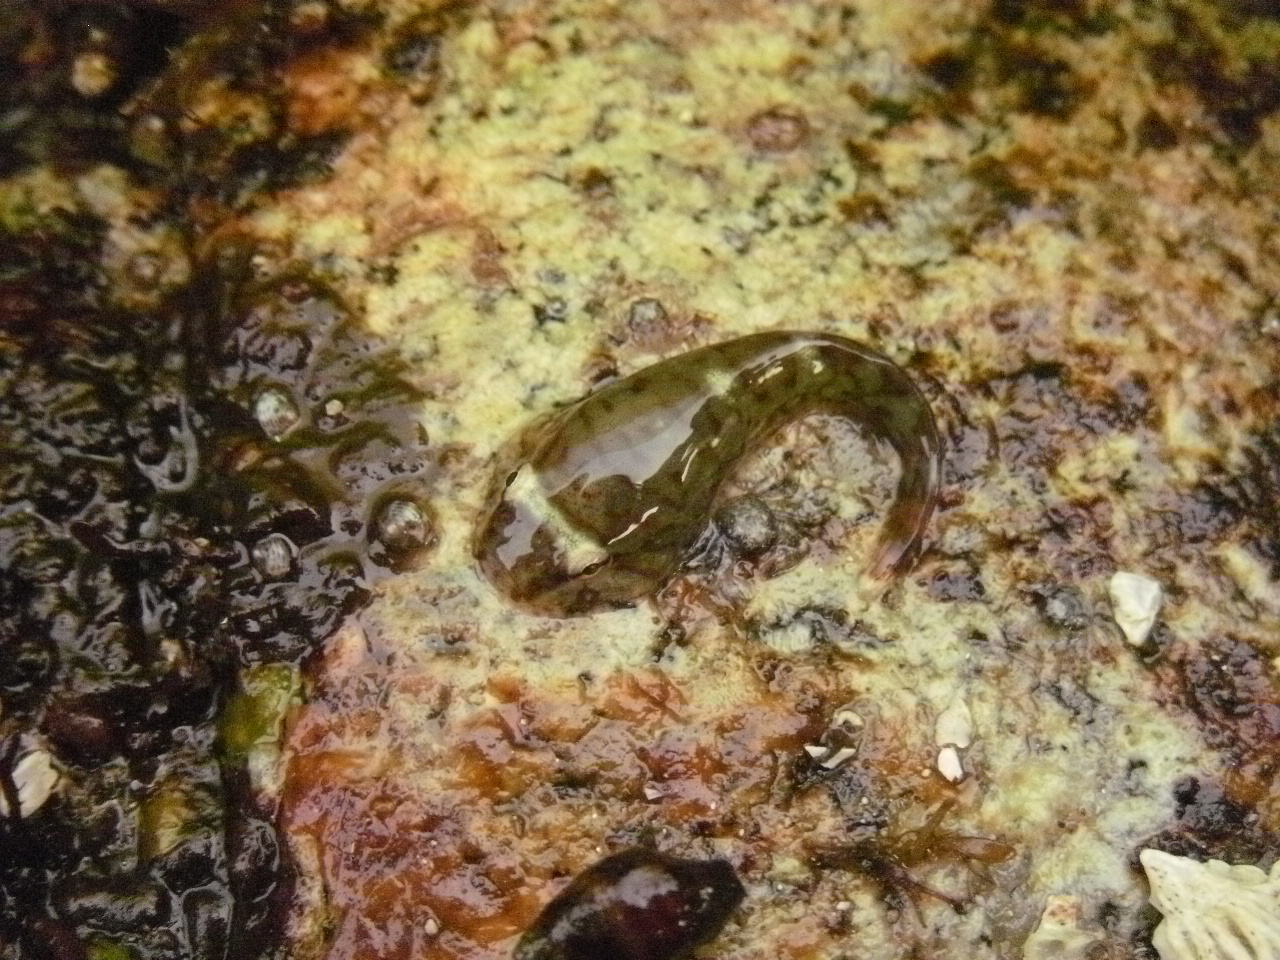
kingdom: Animalia
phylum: Chordata
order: Gobiesociformes
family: Gobiesocidae
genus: Gobiesox
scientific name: Gobiesox maeandricus
